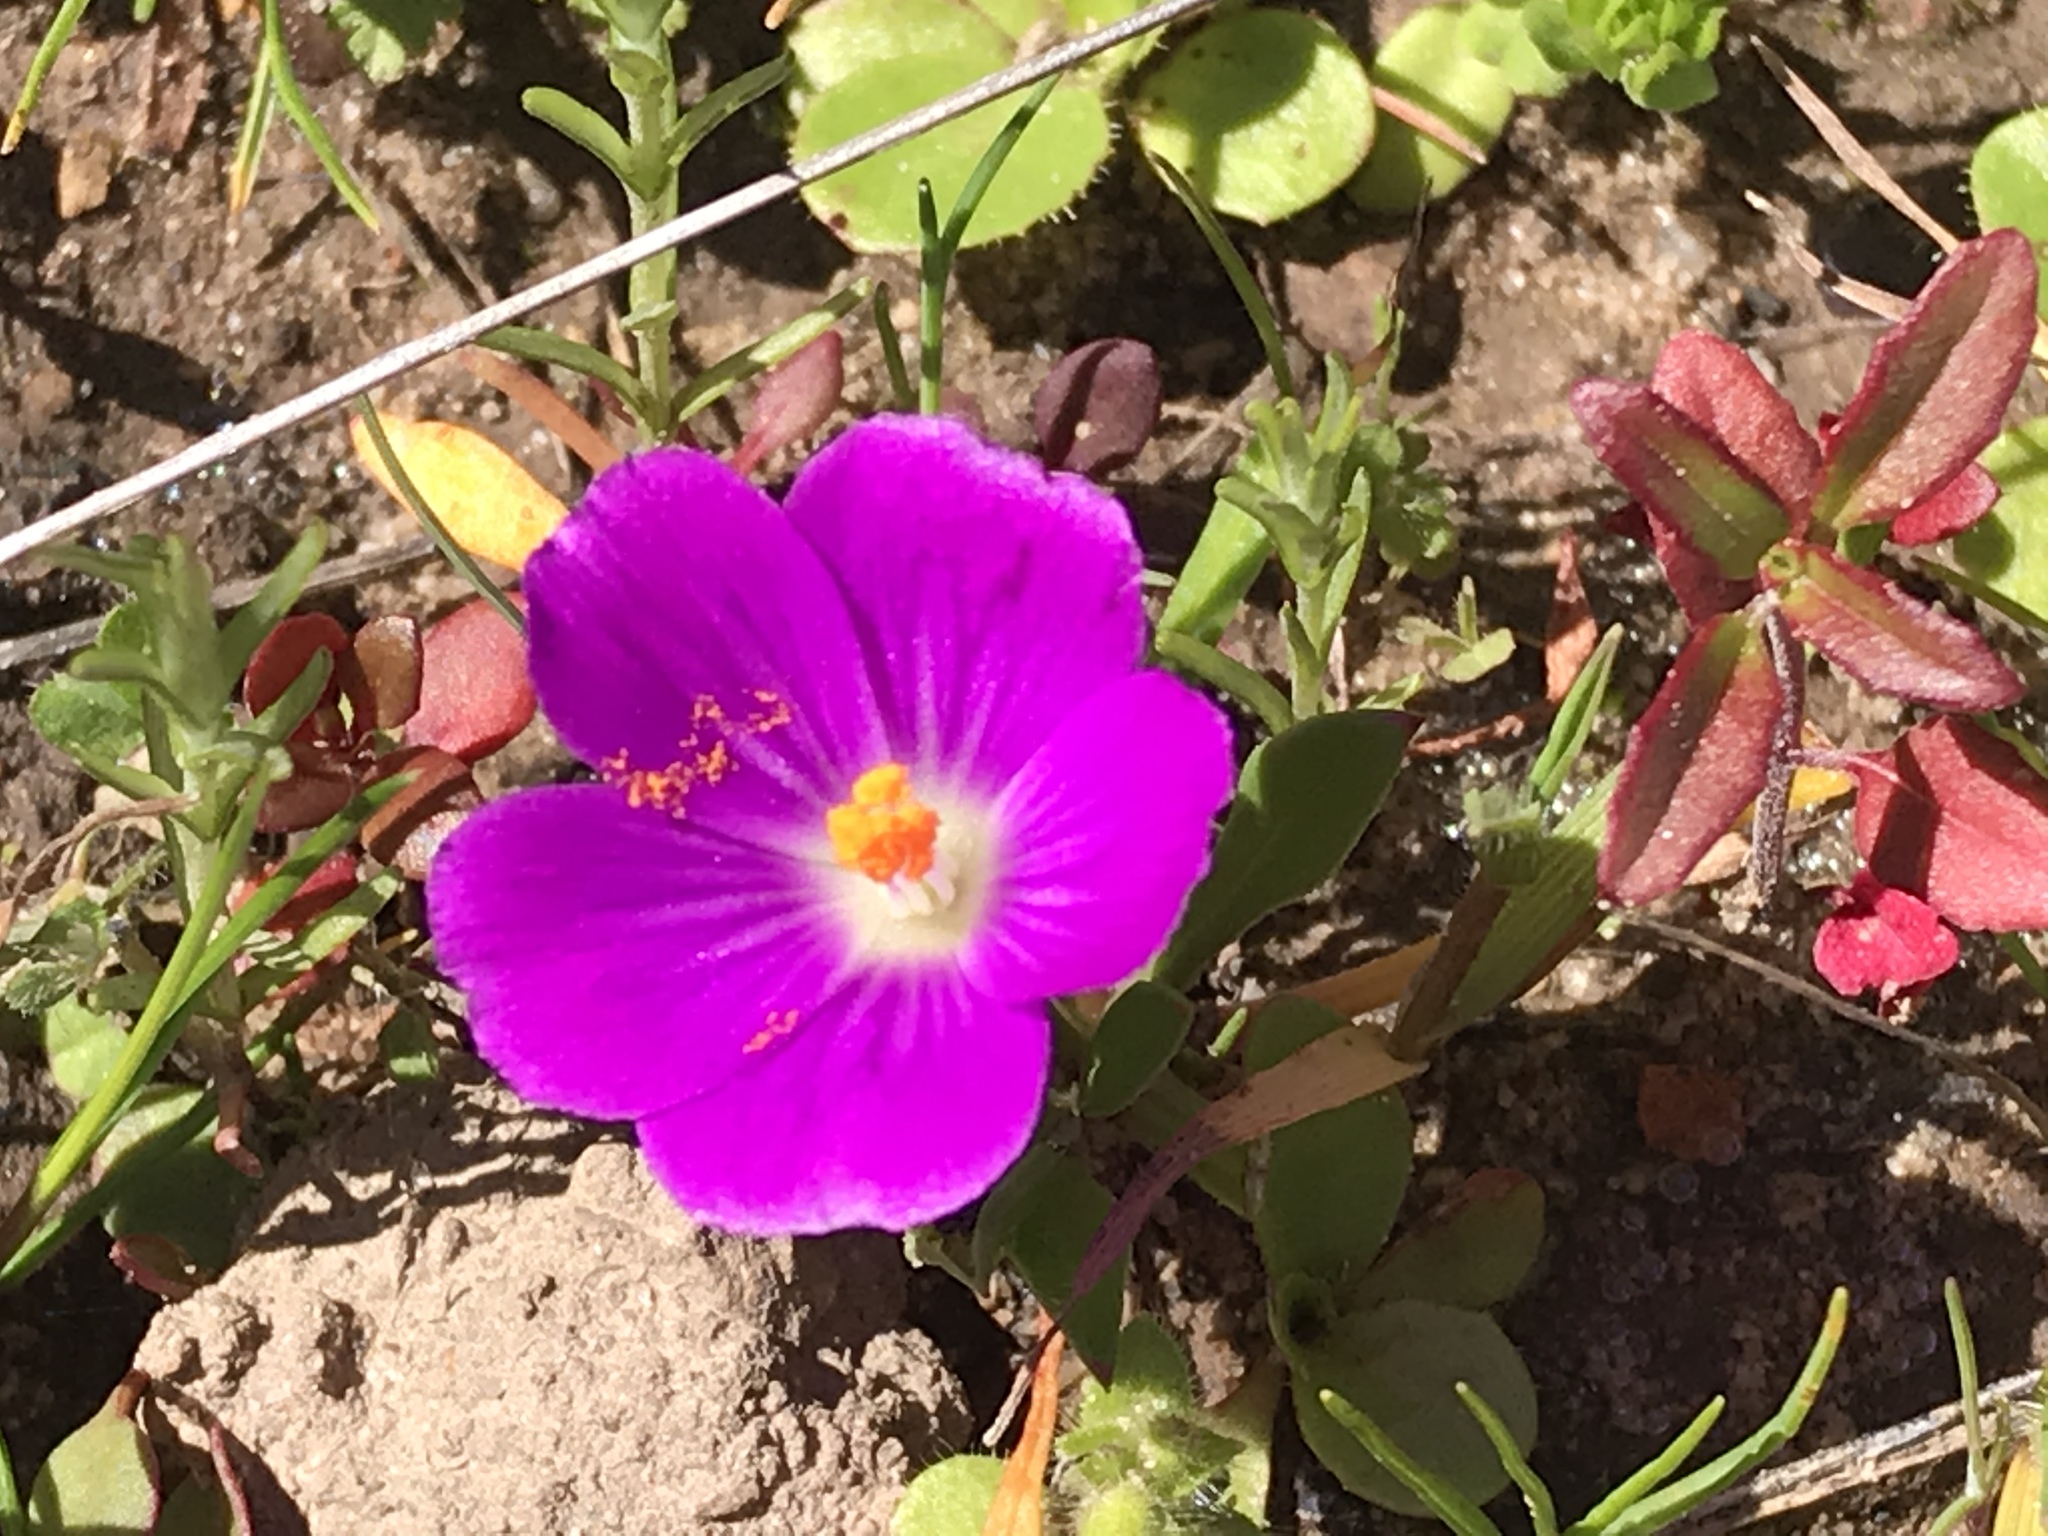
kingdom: Plantae
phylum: Tracheophyta
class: Magnoliopsida
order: Caryophyllales
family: Montiaceae
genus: Calandrinia
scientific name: Calandrinia menziesii
